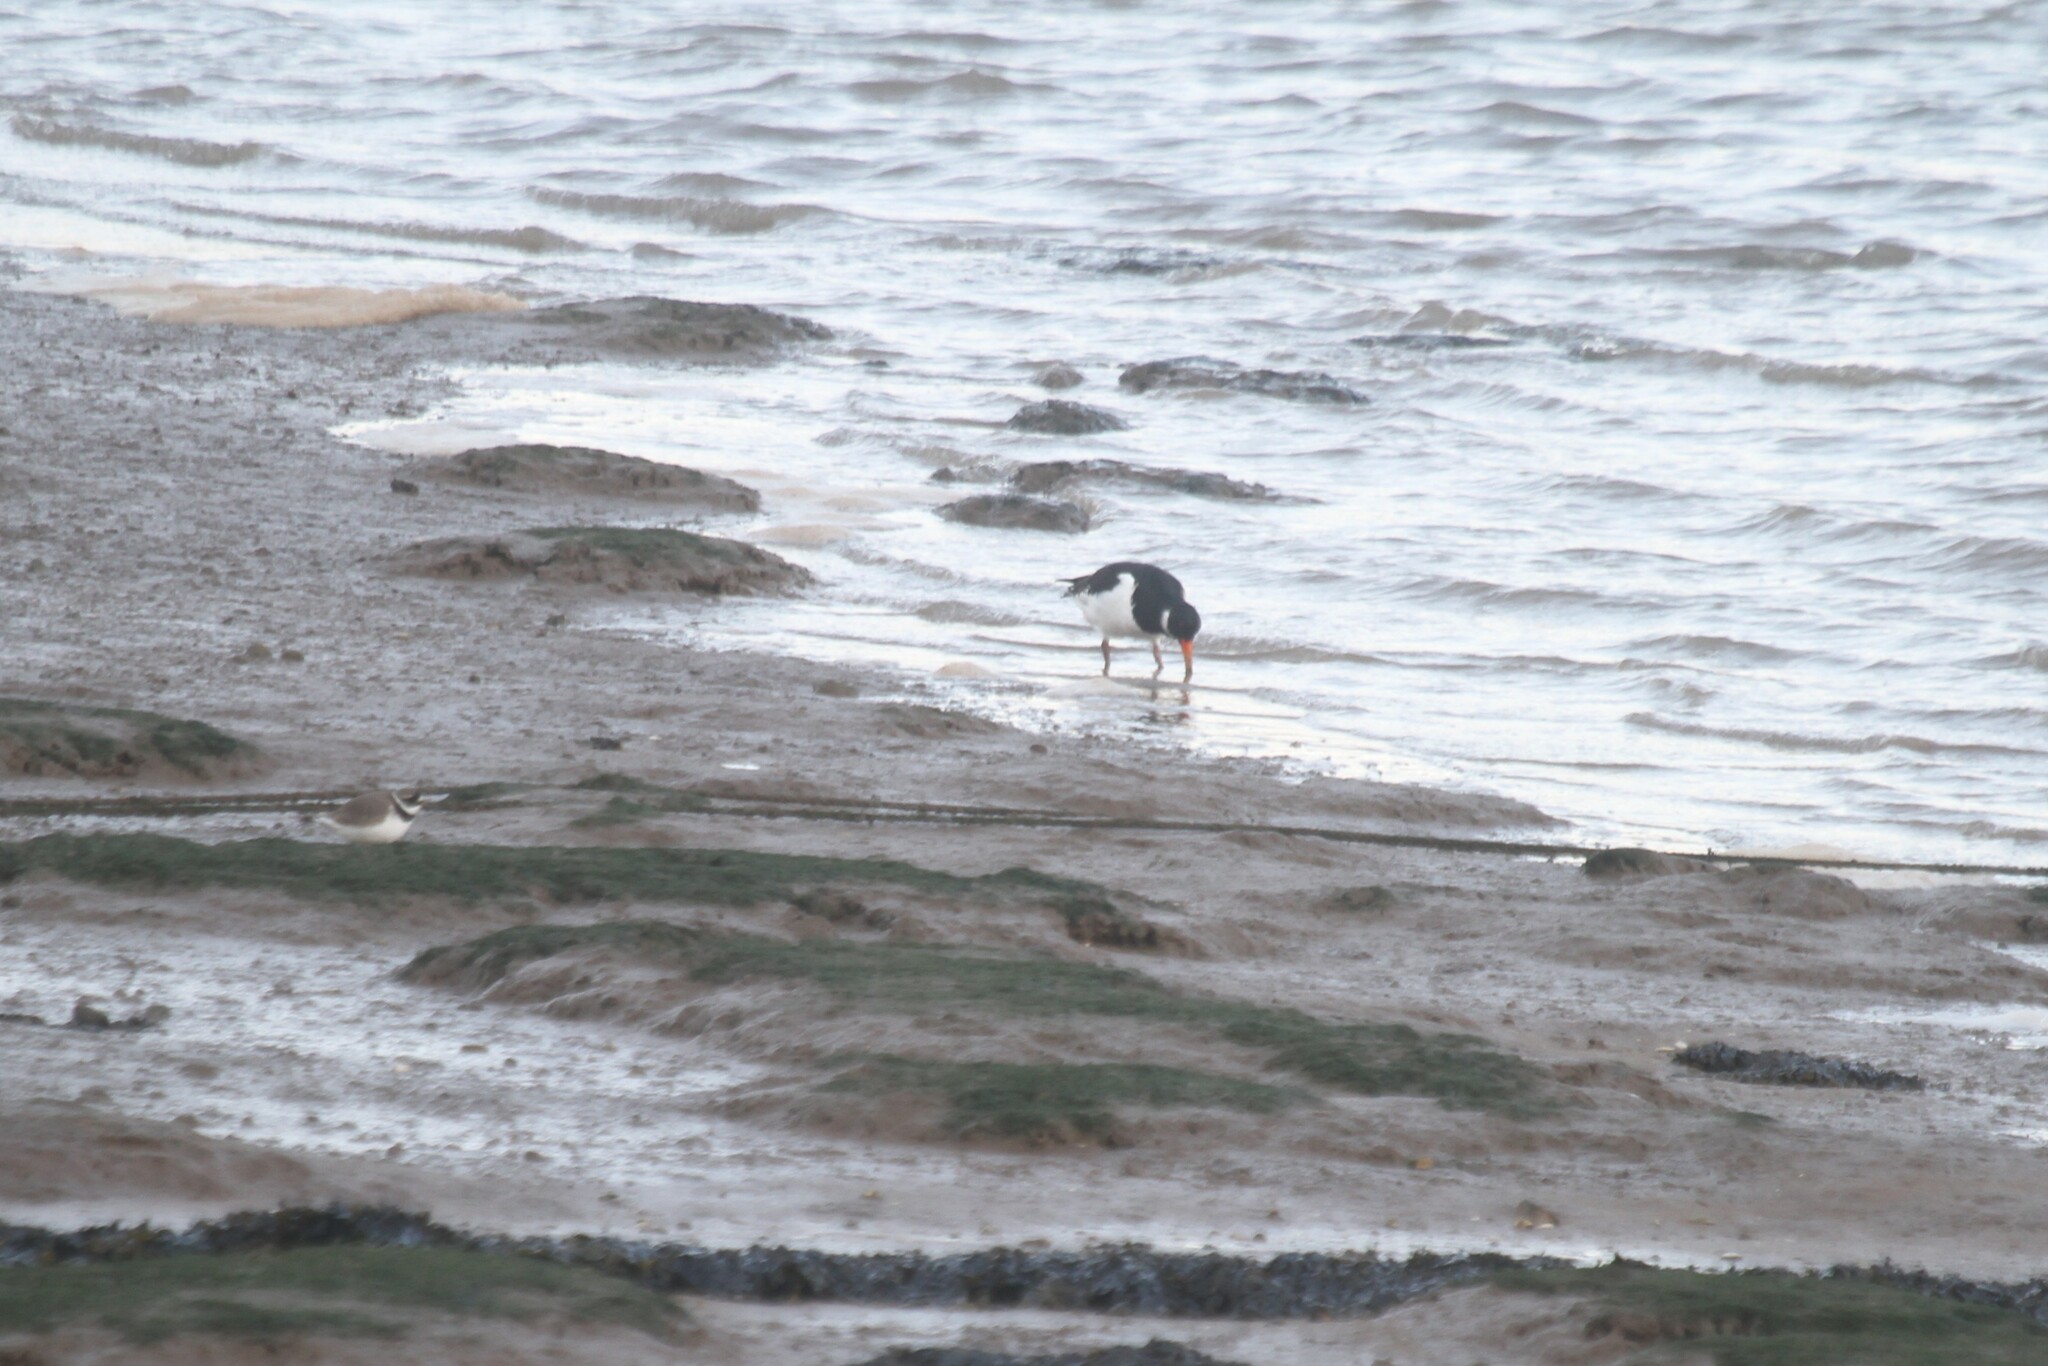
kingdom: Animalia
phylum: Chordata
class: Aves
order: Charadriiformes
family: Haematopodidae
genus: Haematopus
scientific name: Haematopus ostralegus
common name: Eurasian oystercatcher
